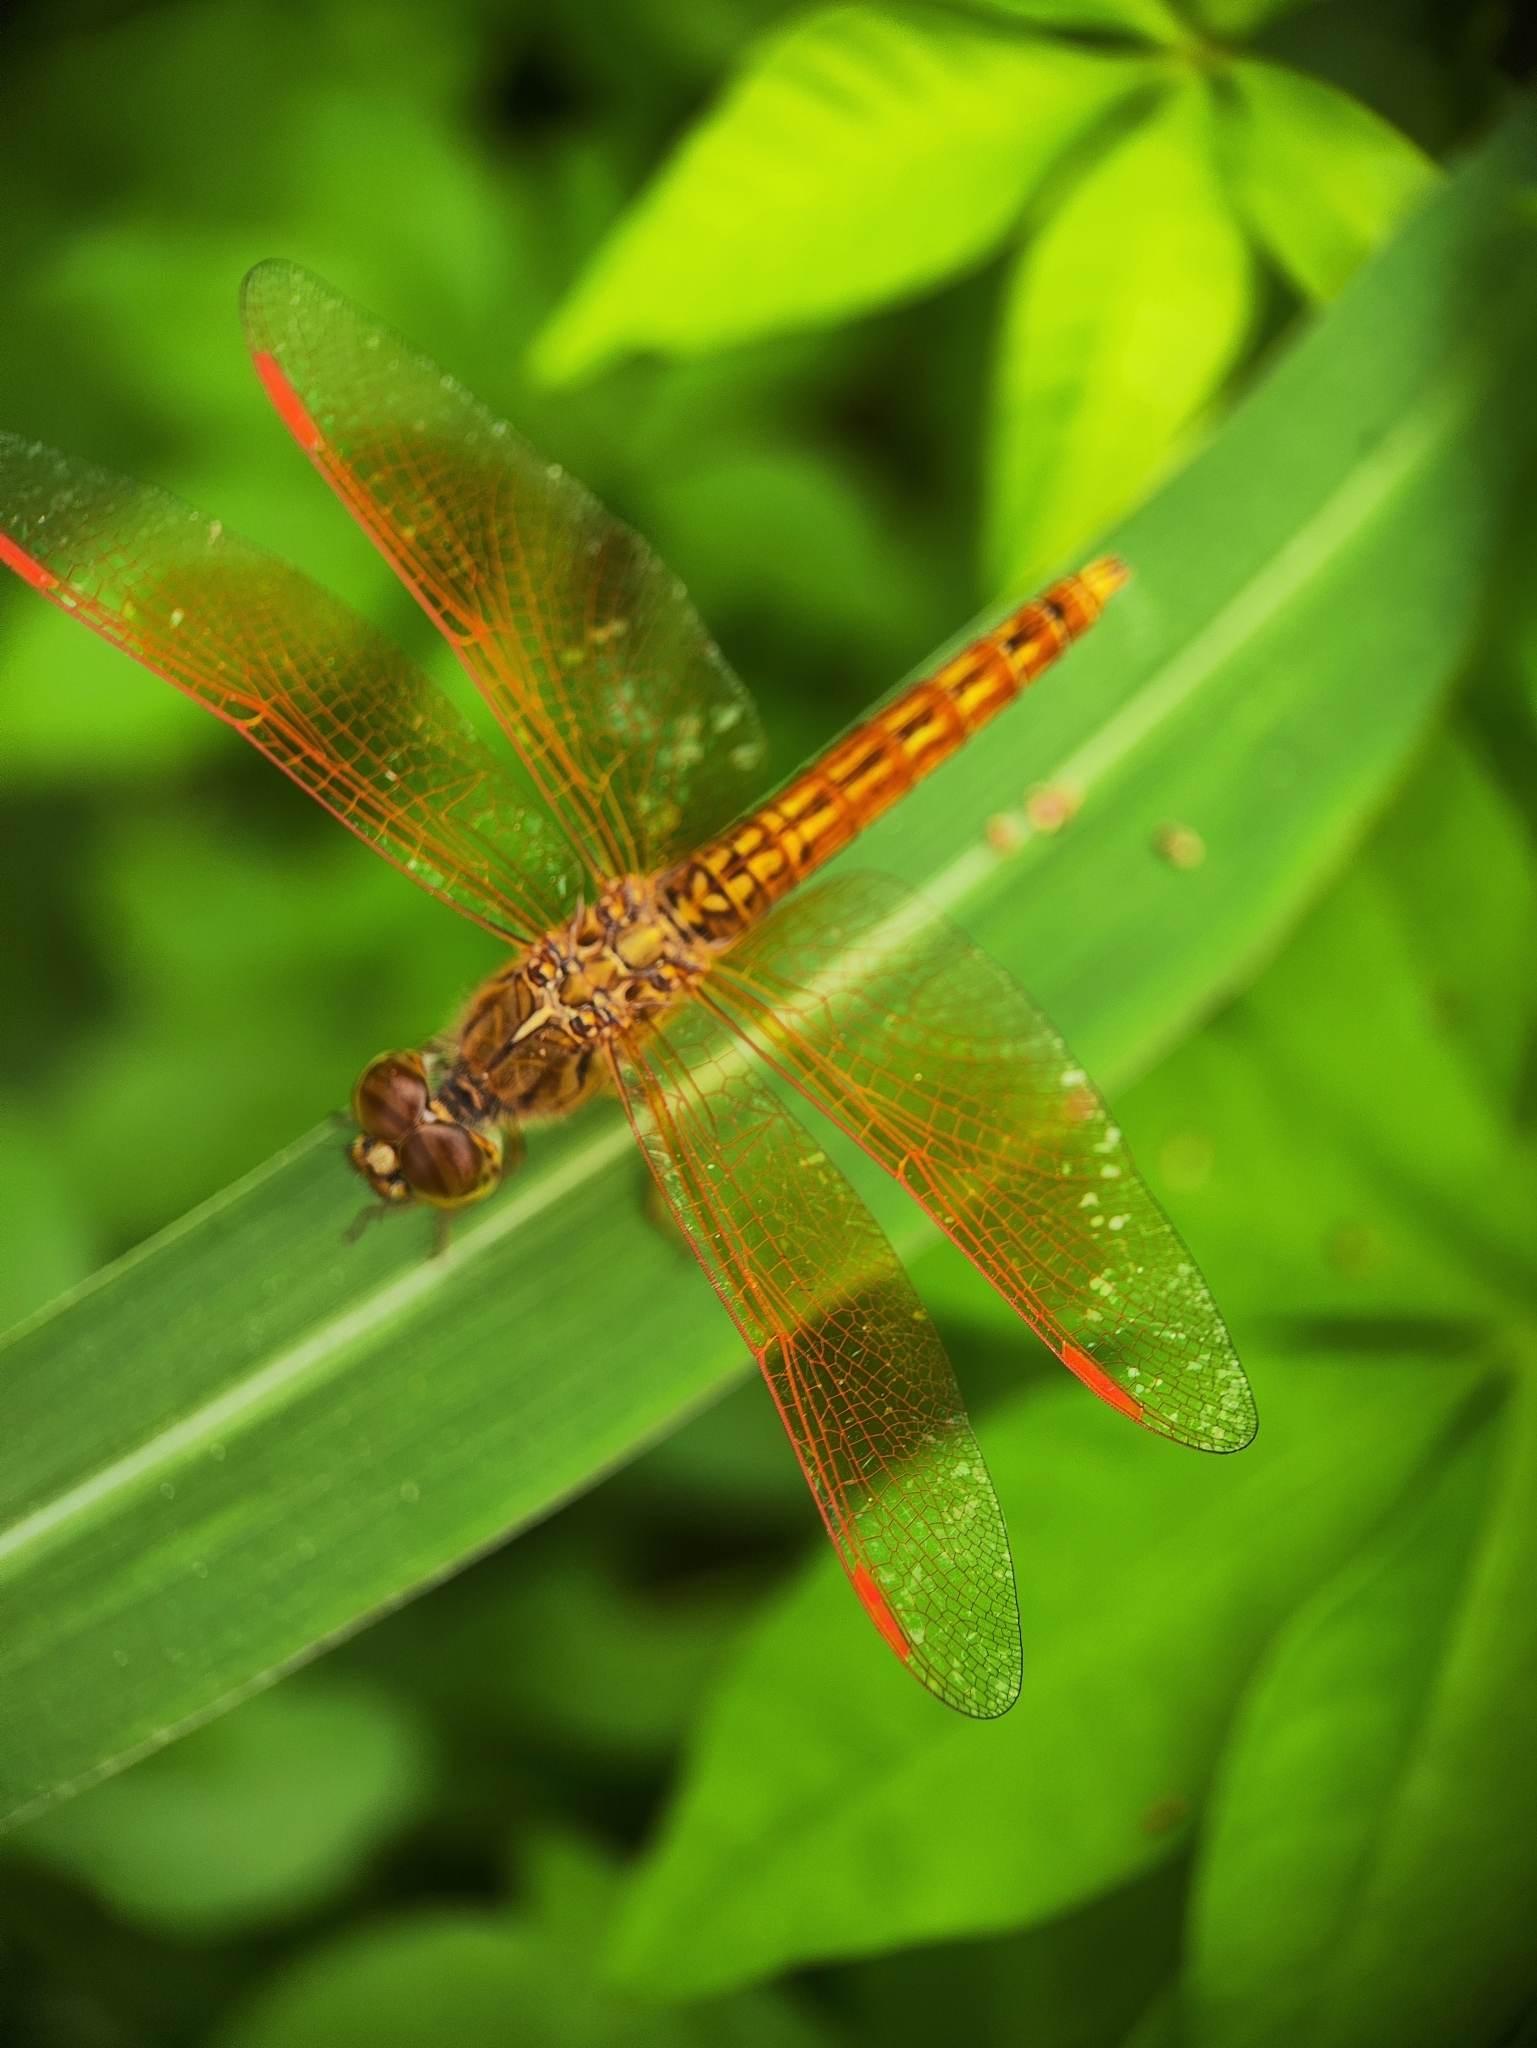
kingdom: Animalia
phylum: Arthropoda
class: Insecta
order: Odonata
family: Libellulidae
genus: Brachythemis
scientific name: Brachythemis contaminata
